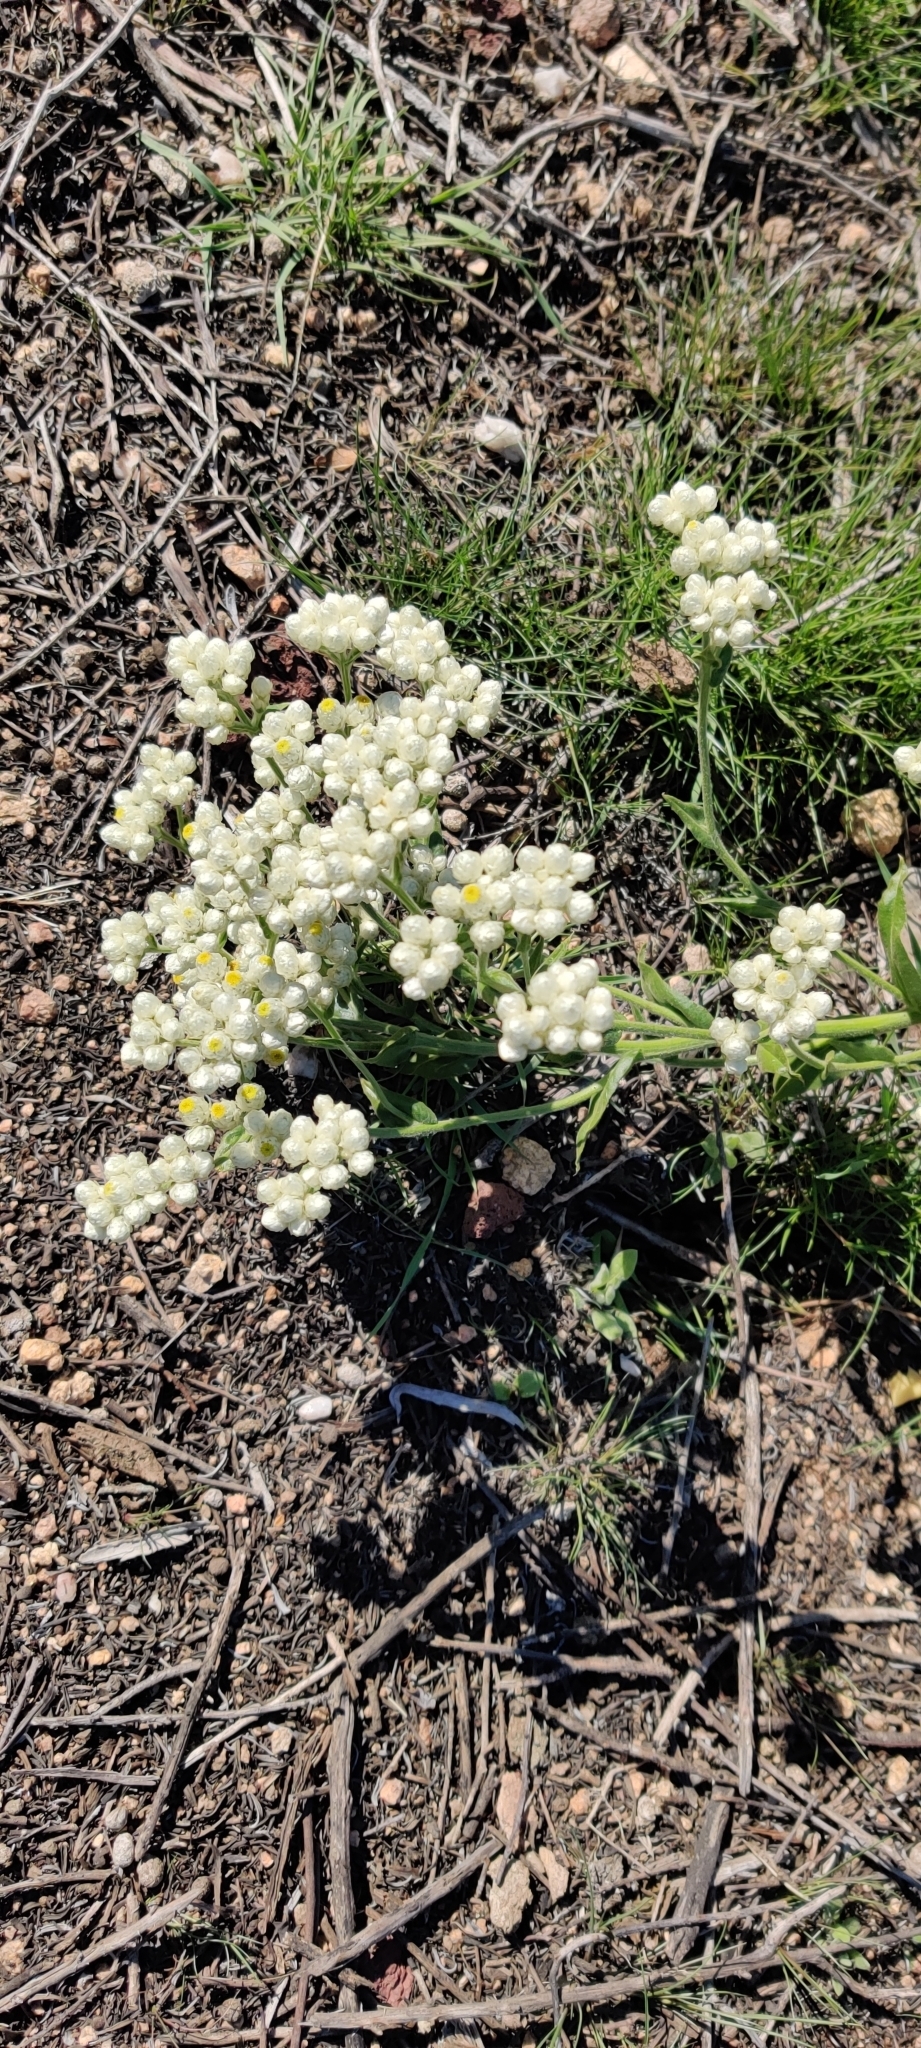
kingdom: Plantae
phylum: Tracheophyta
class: Magnoliopsida
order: Asterales
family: Asteraceae
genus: Pseudognaphalium
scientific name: Pseudognaphalium californicum
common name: California rabbit-tobacco
